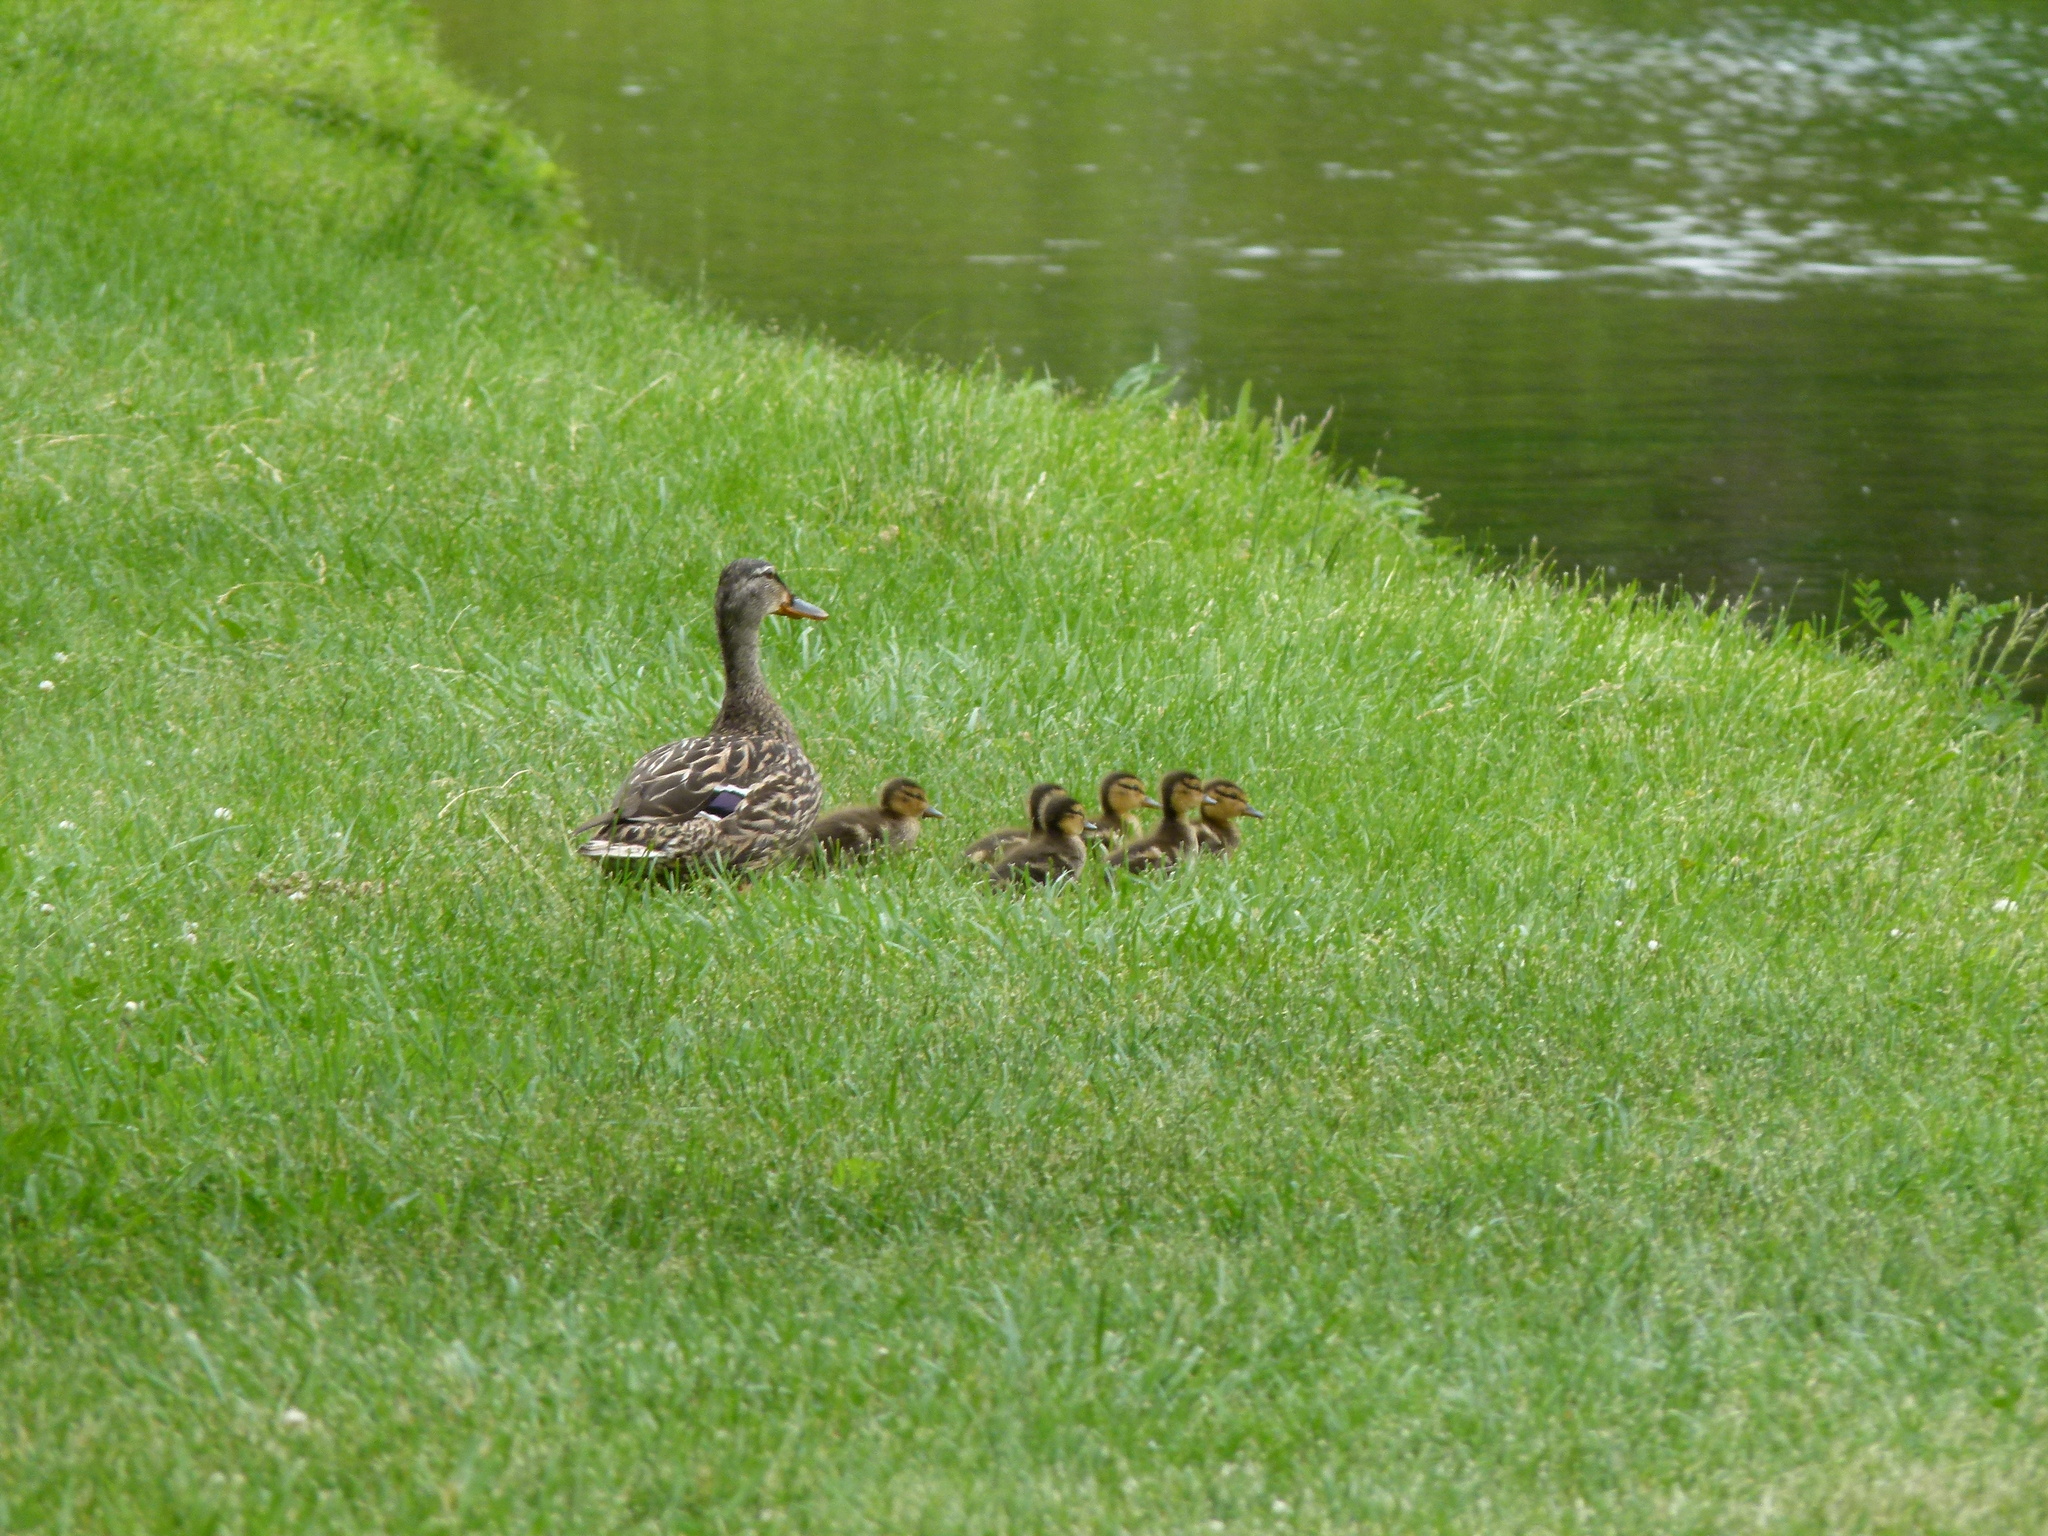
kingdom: Animalia
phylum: Chordata
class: Aves
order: Anseriformes
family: Anatidae
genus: Anas
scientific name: Anas platyrhynchos
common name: Mallard
